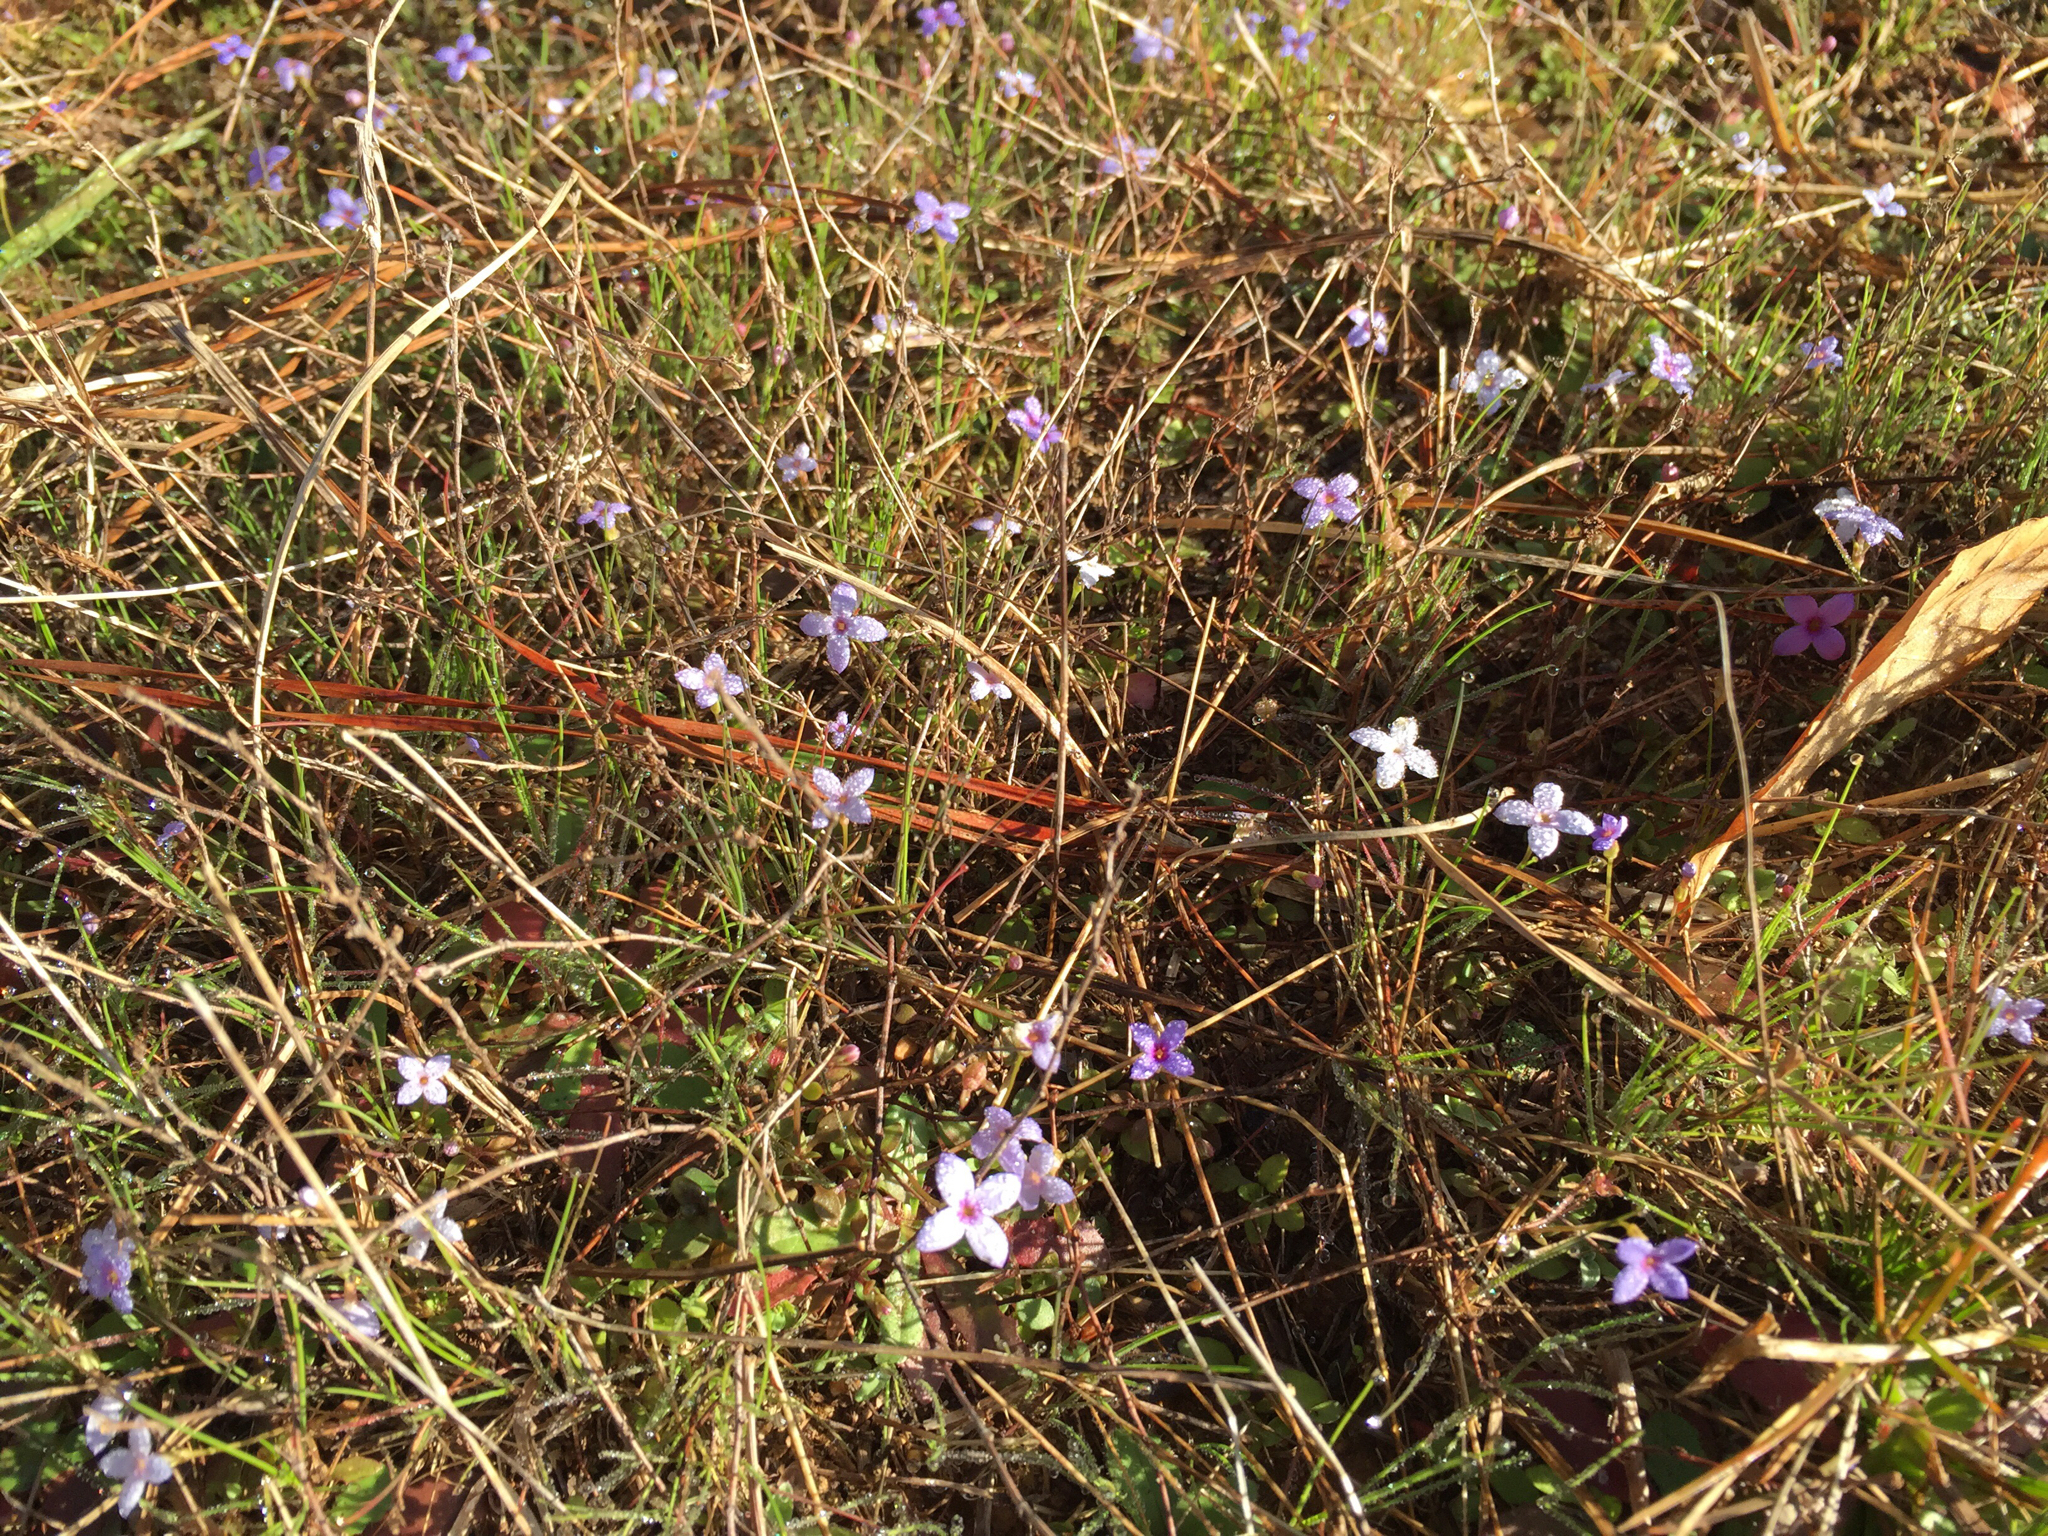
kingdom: Plantae
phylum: Tracheophyta
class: Magnoliopsida
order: Gentianales
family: Rubiaceae
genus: Houstonia
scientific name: Houstonia pusilla
